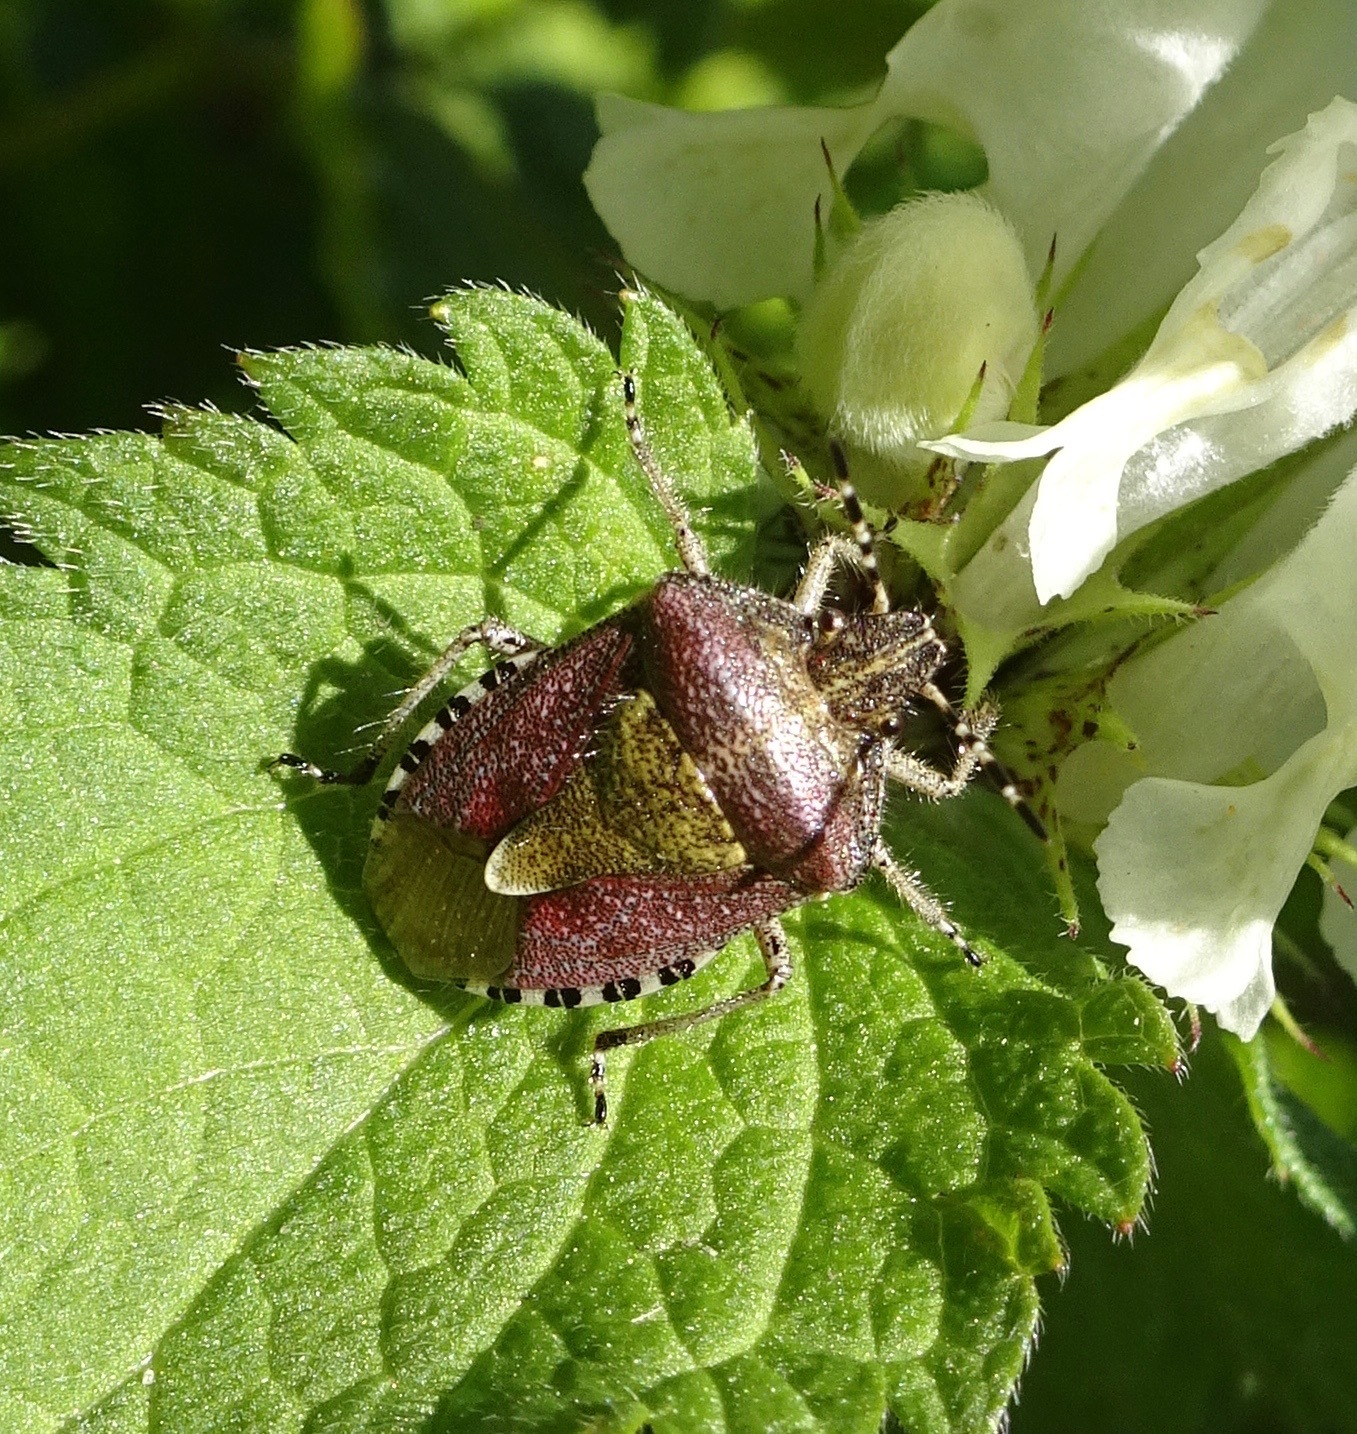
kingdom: Animalia
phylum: Arthropoda
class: Insecta
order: Hemiptera
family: Pentatomidae
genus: Dolycoris
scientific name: Dolycoris baccarum
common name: Sloe bug
